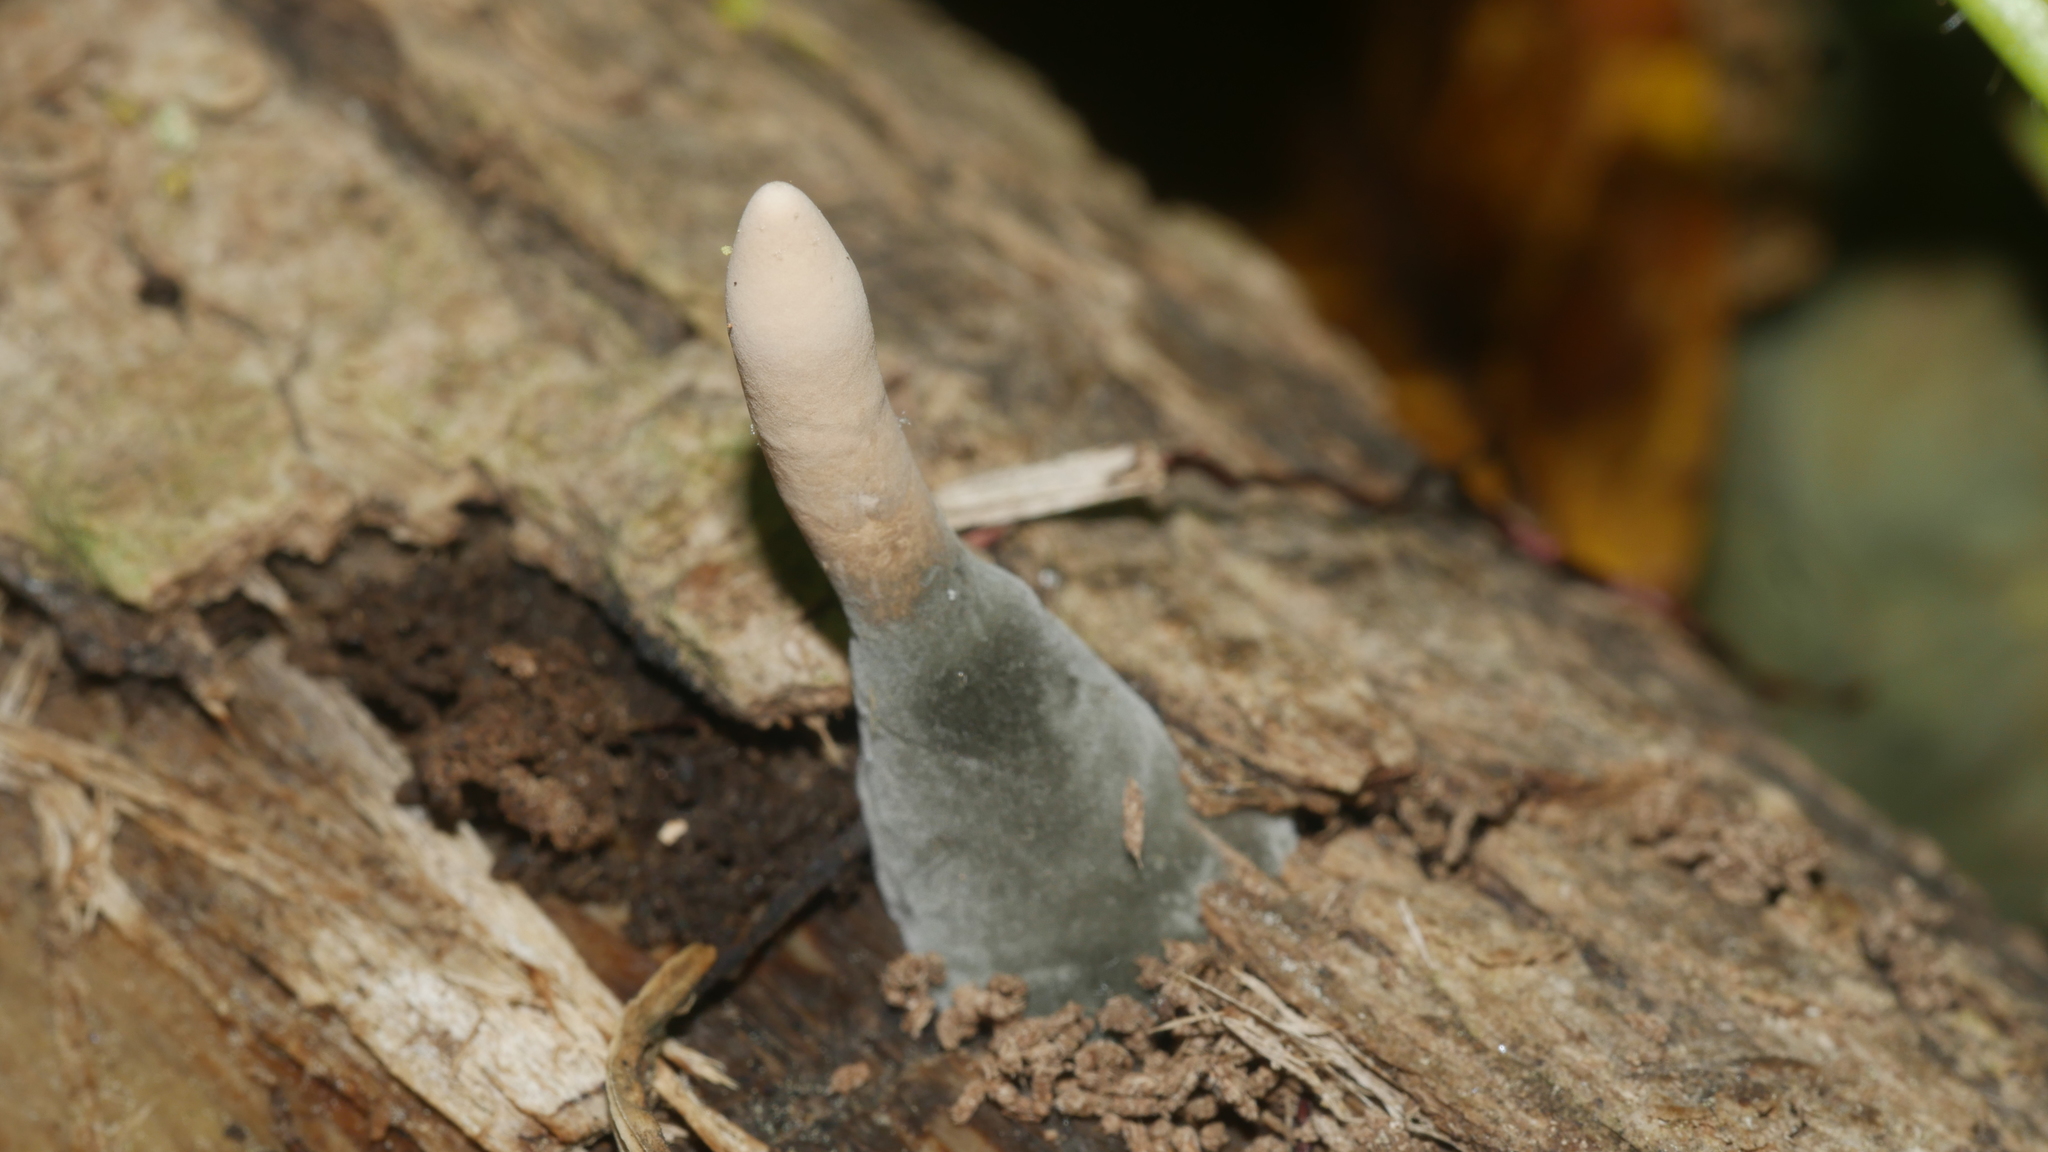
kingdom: Fungi
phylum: Ascomycota
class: Sordariomycetes
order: Xylariales
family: Xylariaceae
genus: Xylaria
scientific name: Xylaria cubensis
